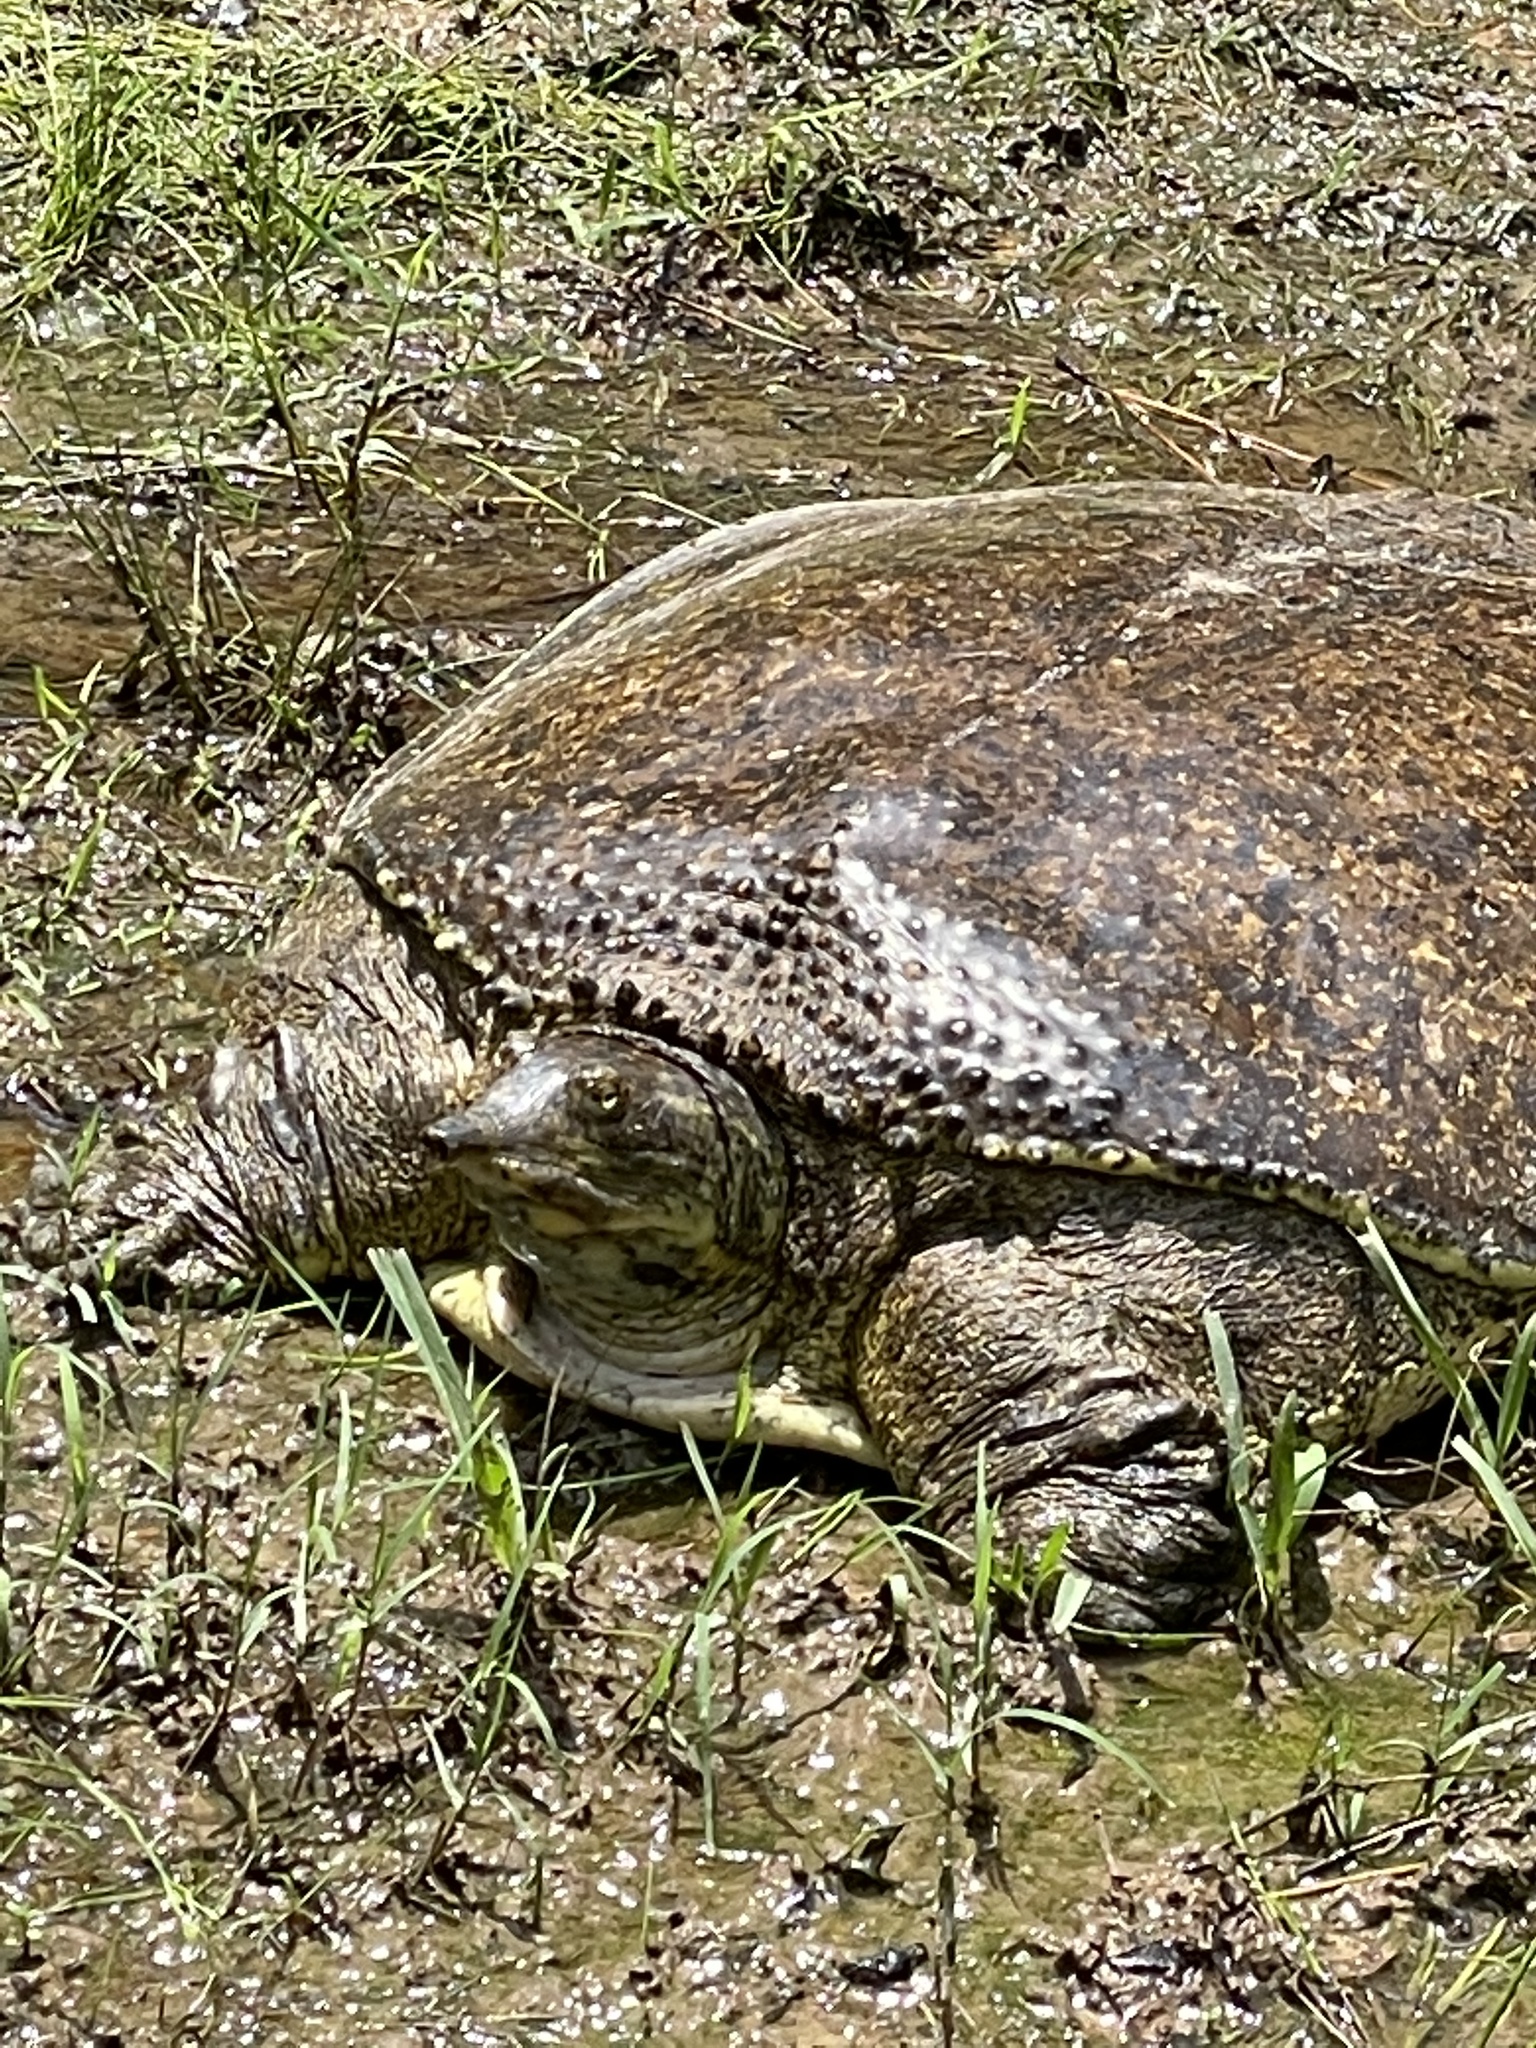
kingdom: Animalia
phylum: Chordata
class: Testudines
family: Trionychidae
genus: Apalone
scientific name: Apalone spinifera
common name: Spiny softshell turtle
